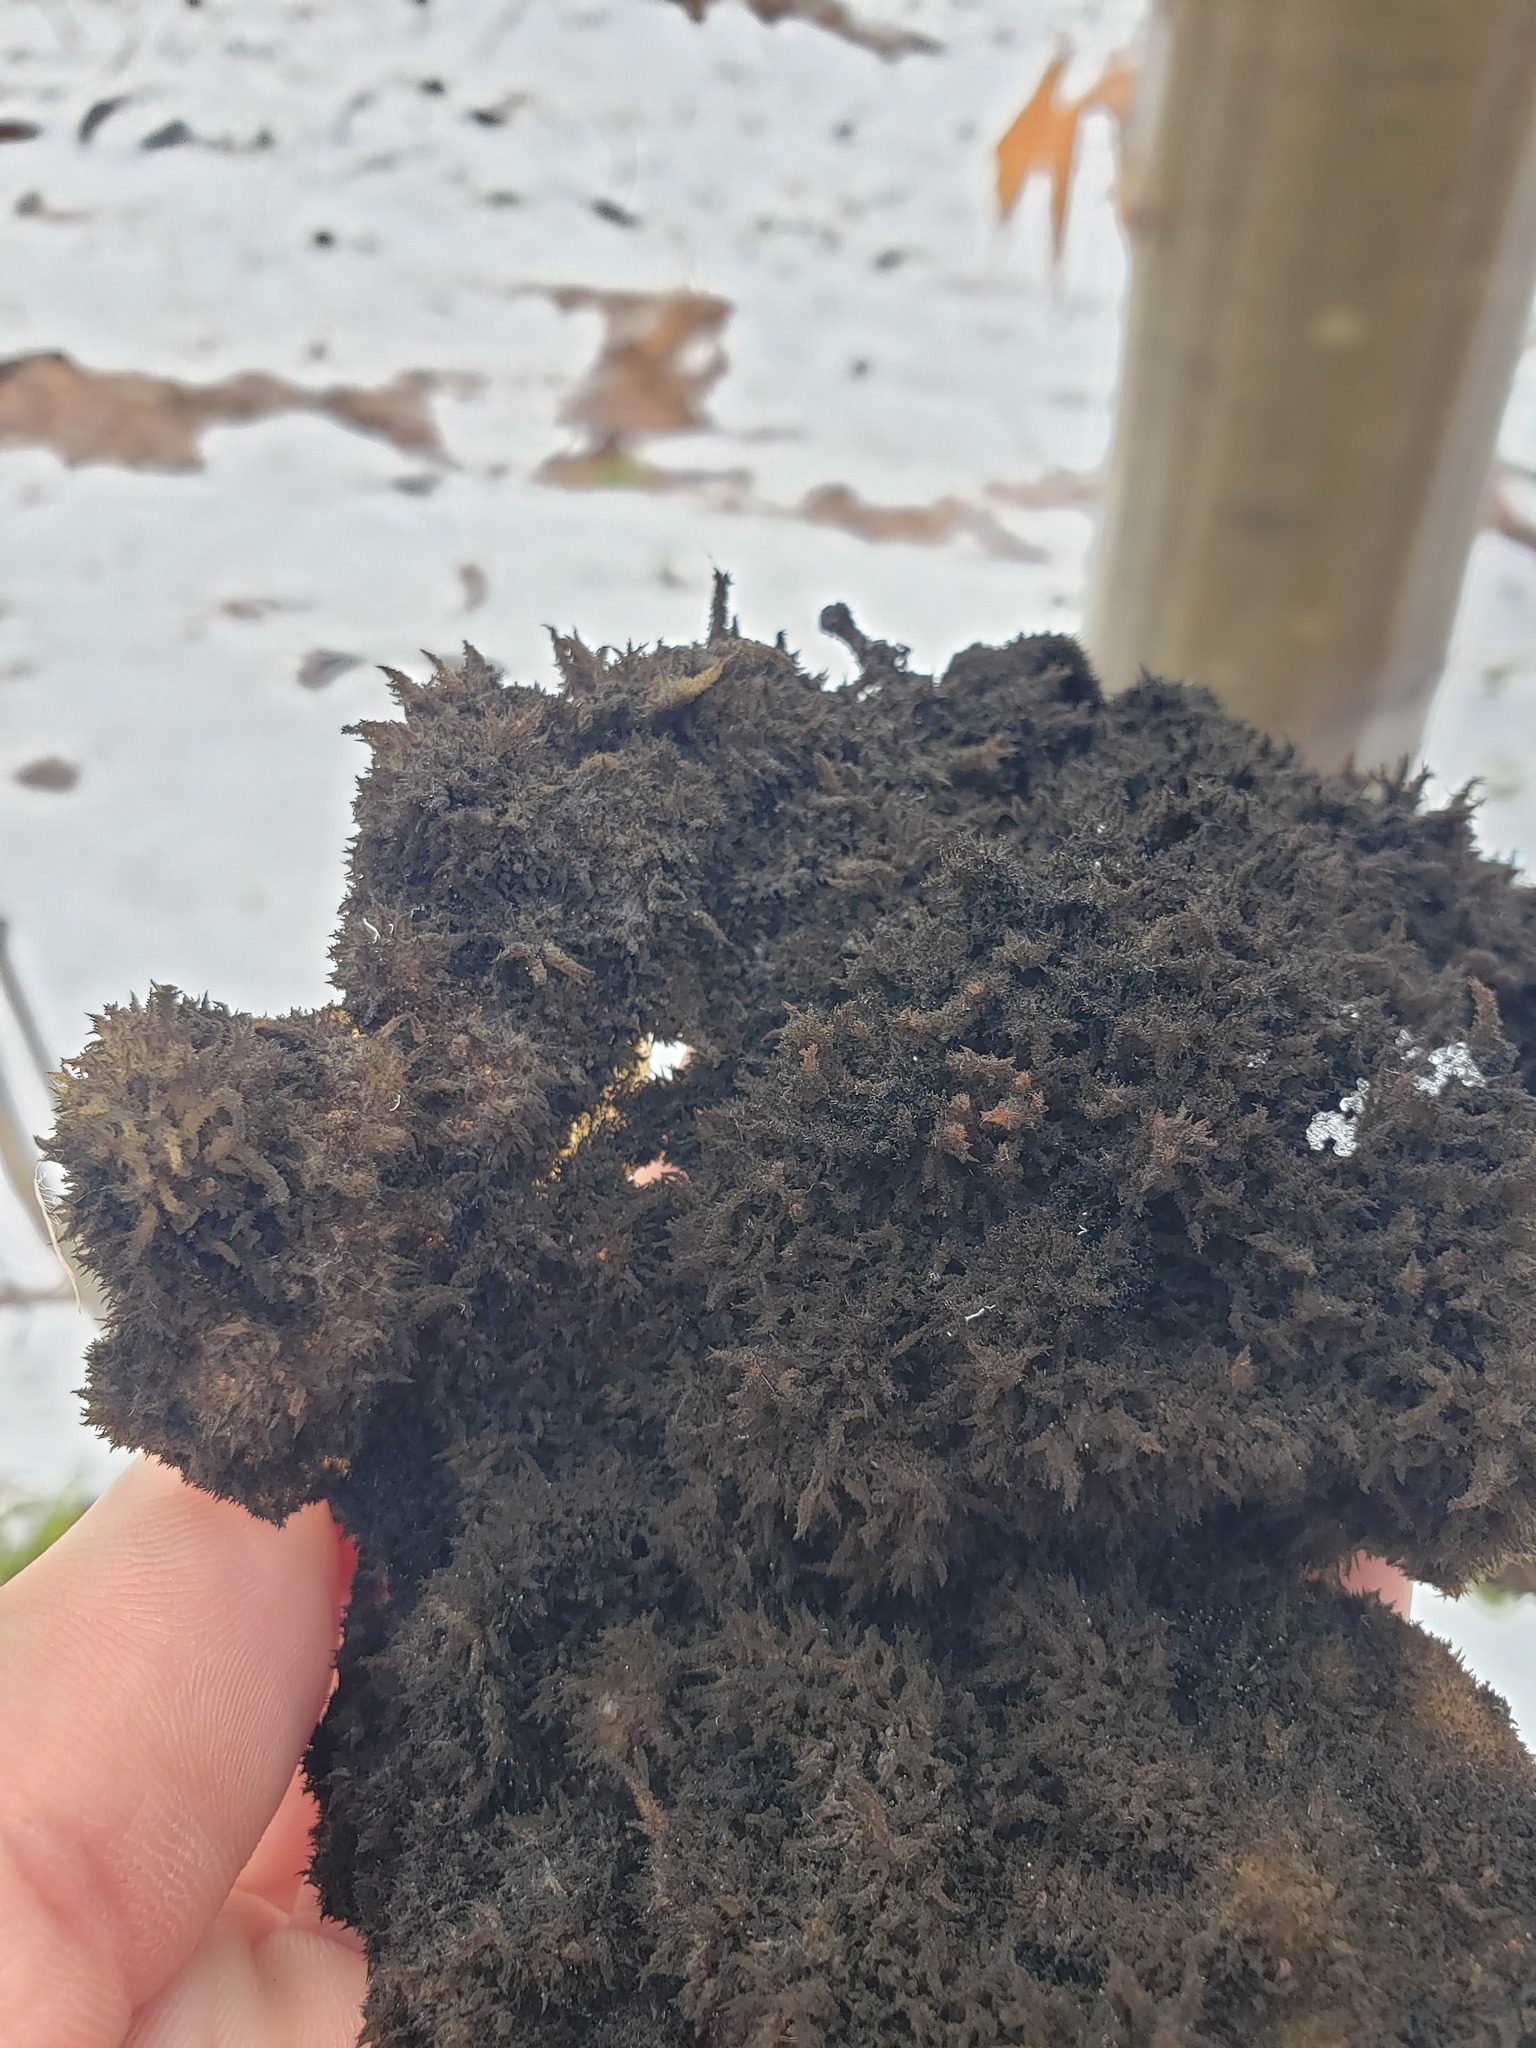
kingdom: Fungi
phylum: Ascomycota
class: Dothideomycetes
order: Capnodiales
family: Capnodiaceae
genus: Scorias
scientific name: Scorias spongiosa
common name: Black sooty mold
